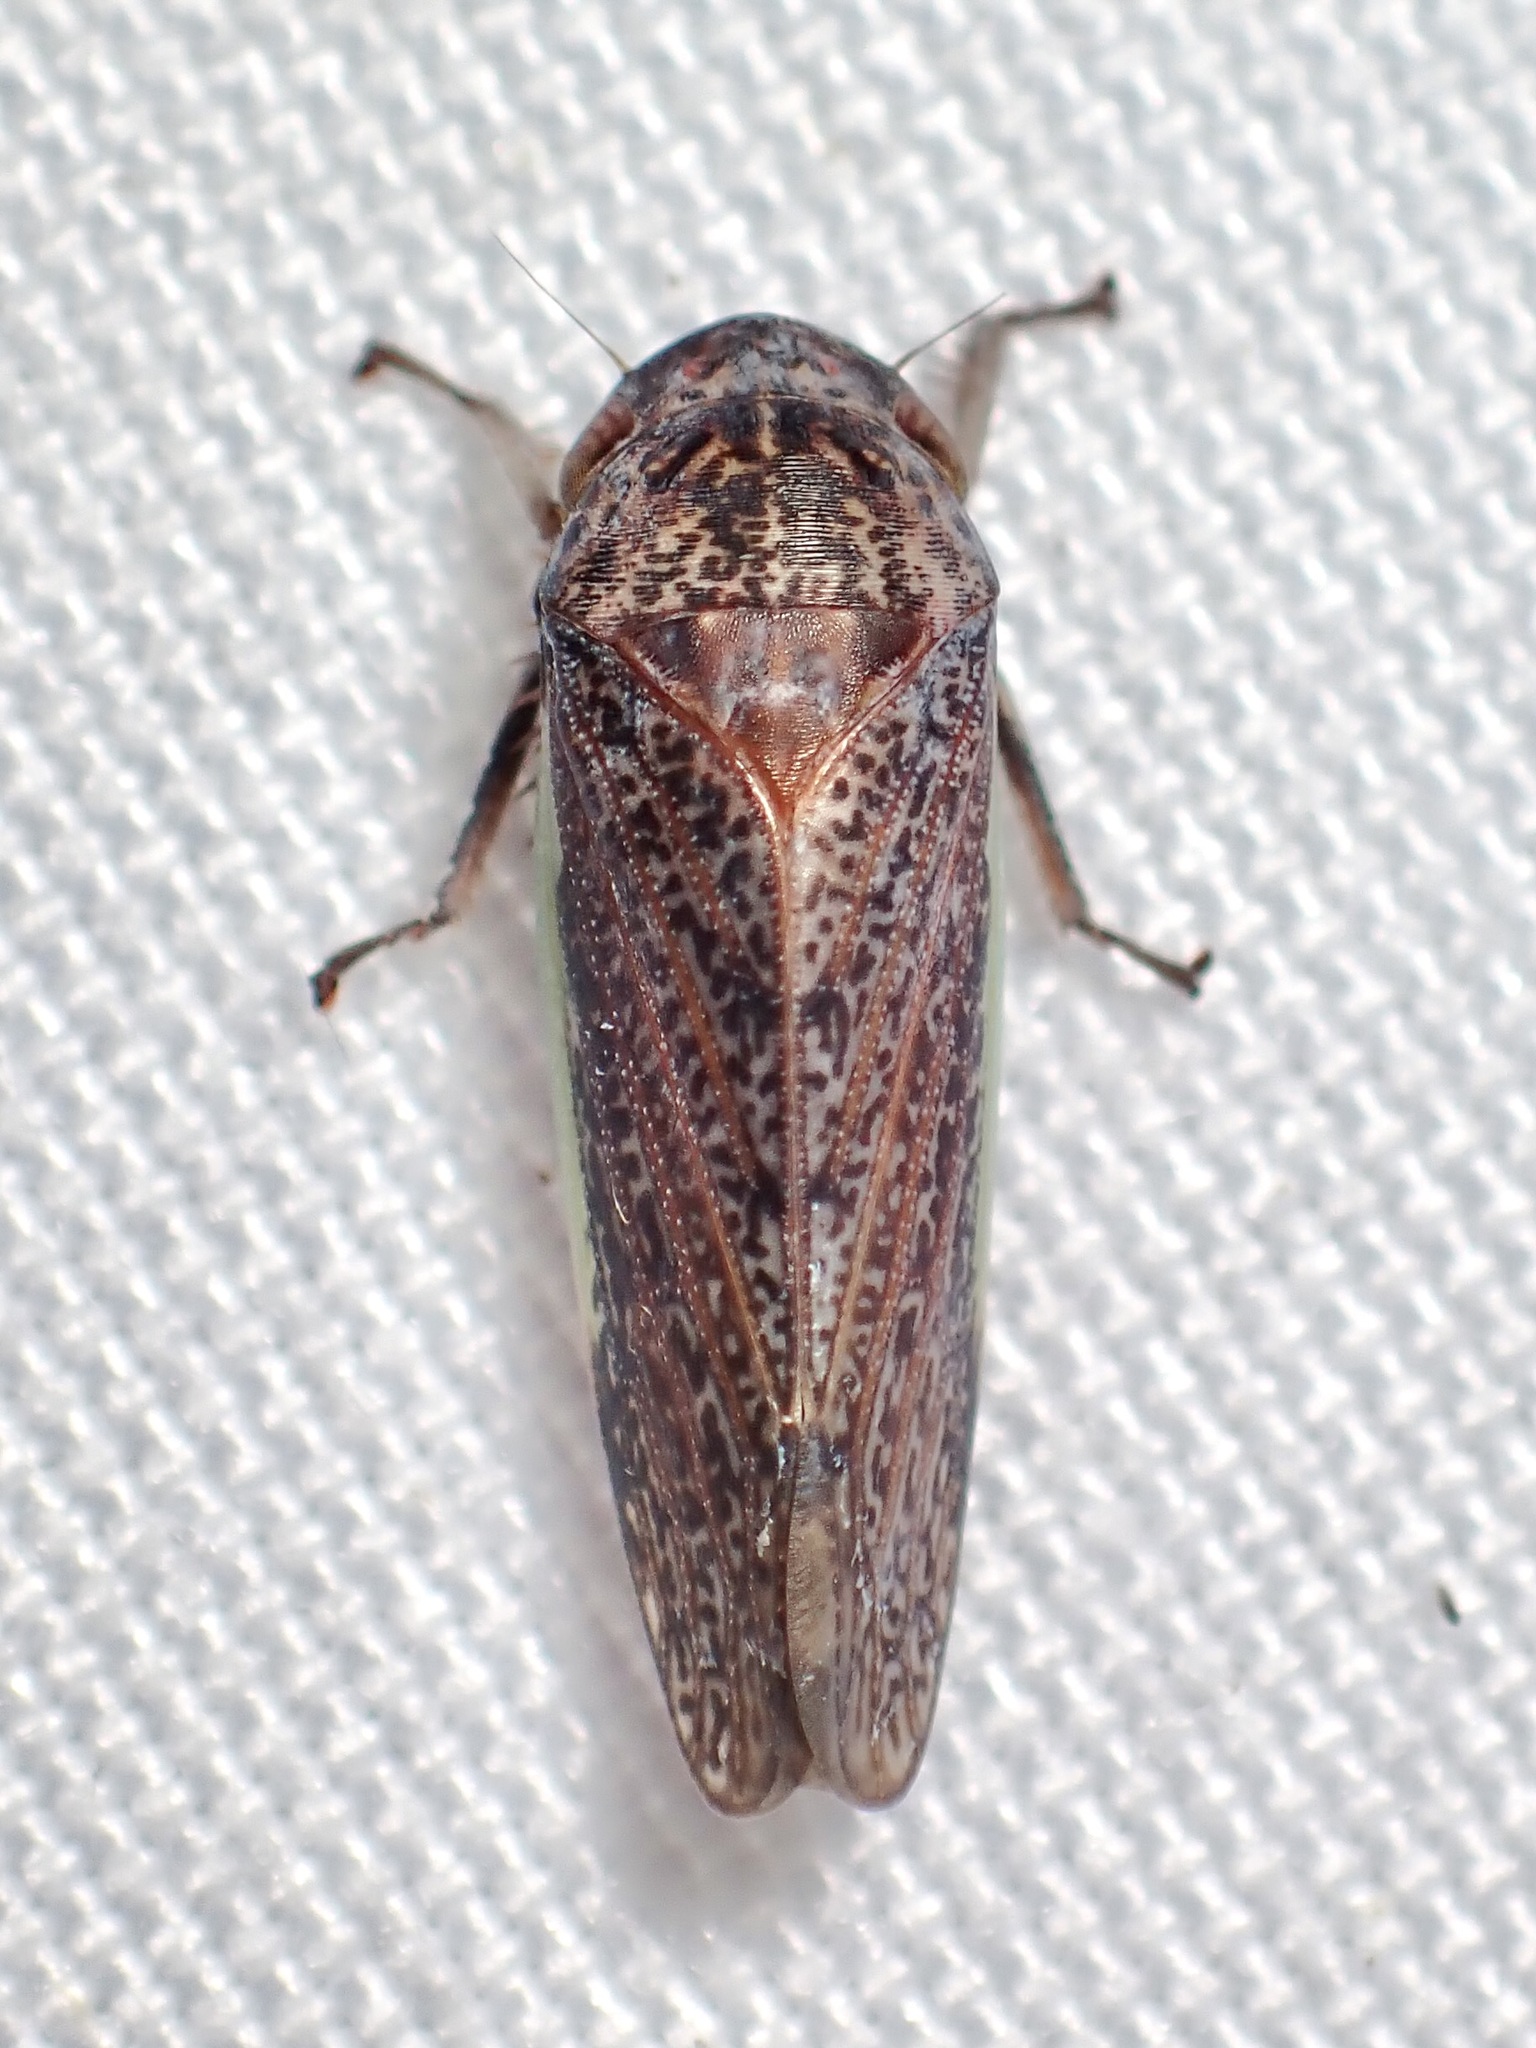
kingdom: Animalia
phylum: Arthropoda
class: Insecta
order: Hemiptera
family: Cicadellidae
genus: Hamana
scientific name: Hamana gelbata
